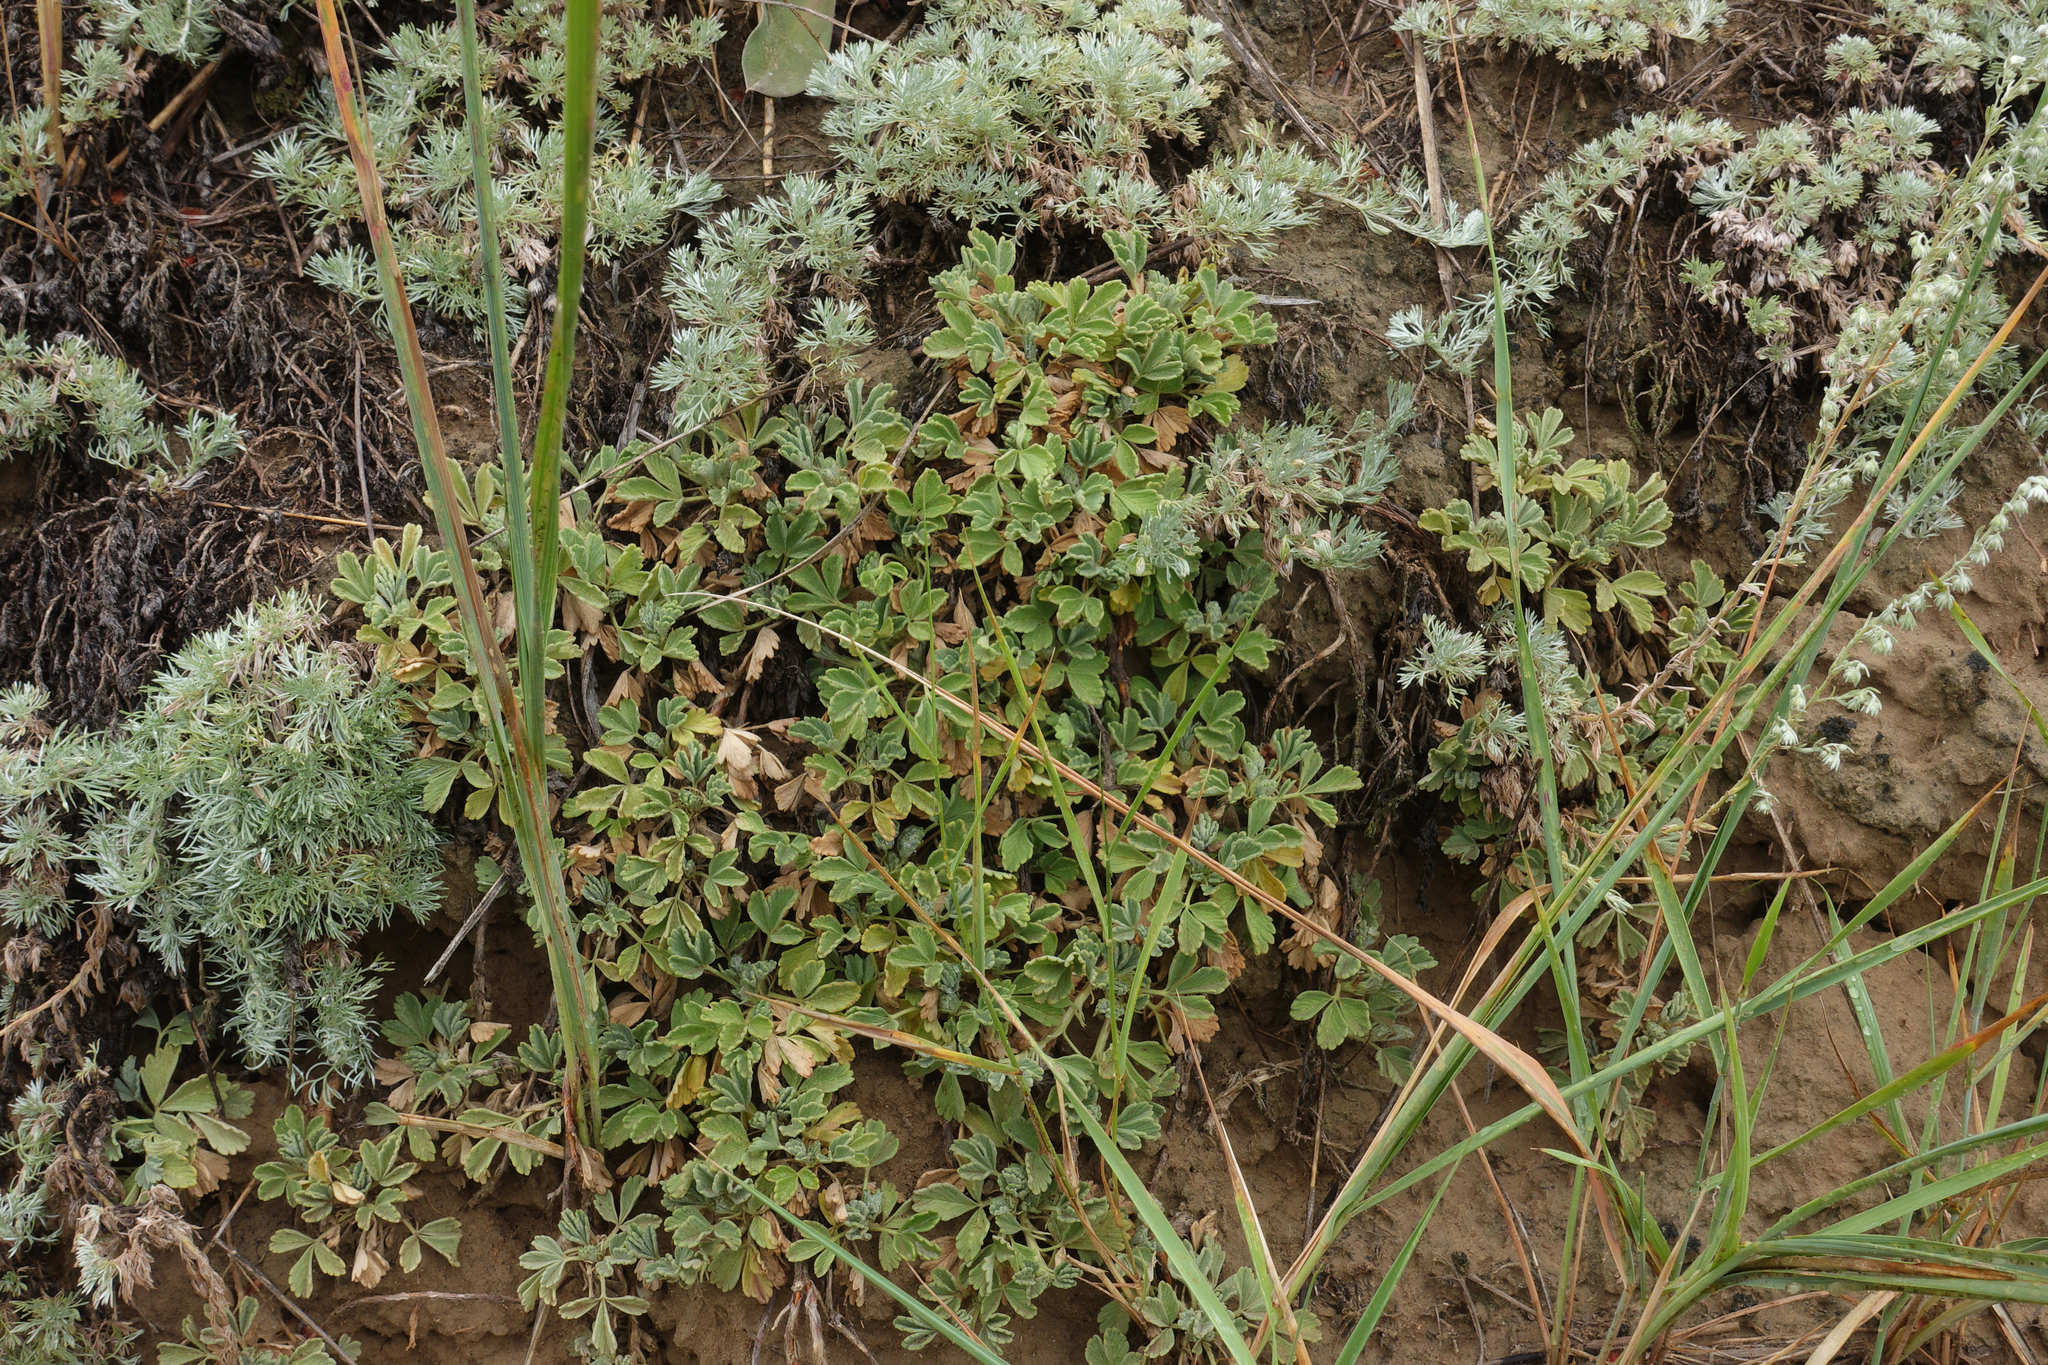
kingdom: Plantae
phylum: Tracheophyta
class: Magnoliopsida
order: Rosales
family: Rosaceae
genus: Potentilla
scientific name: Potentilla acaulis
